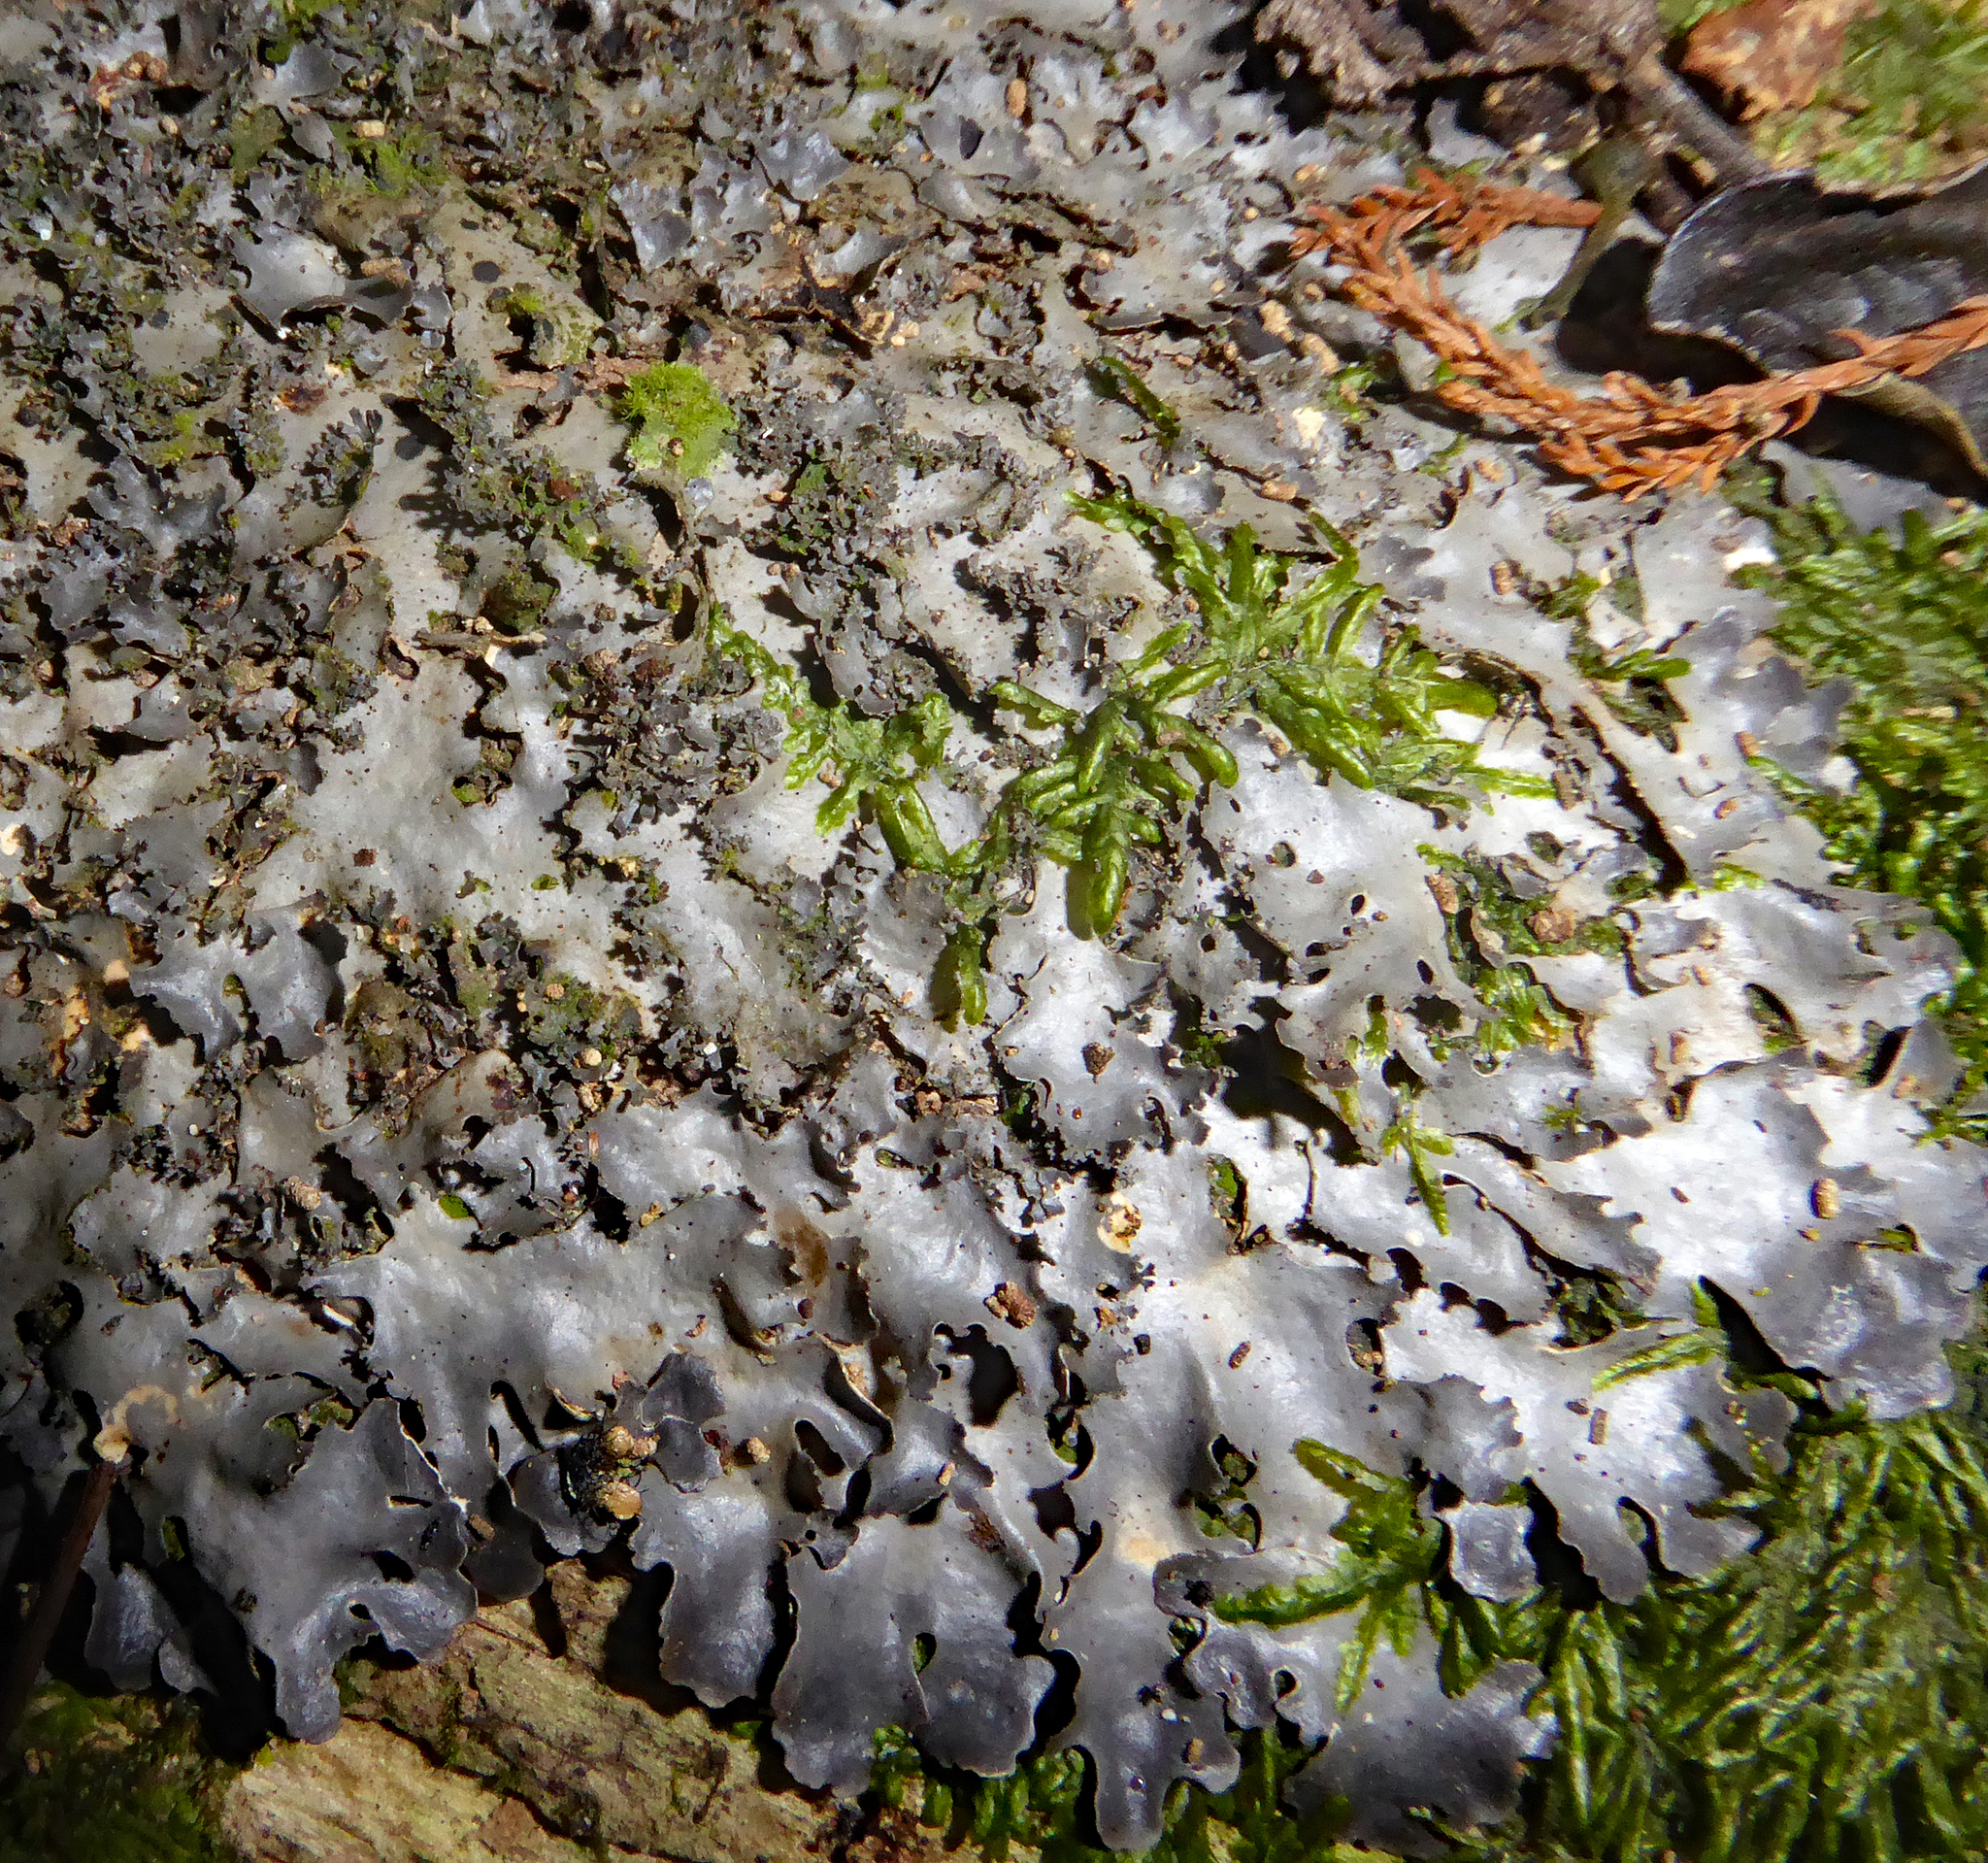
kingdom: Fungi
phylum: Ascomycota
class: Lecanoromycetes
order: Peltigerales
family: Lobariaceae
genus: Pseudocyphellaria
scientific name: Pseudocyphellaria dissimilis
